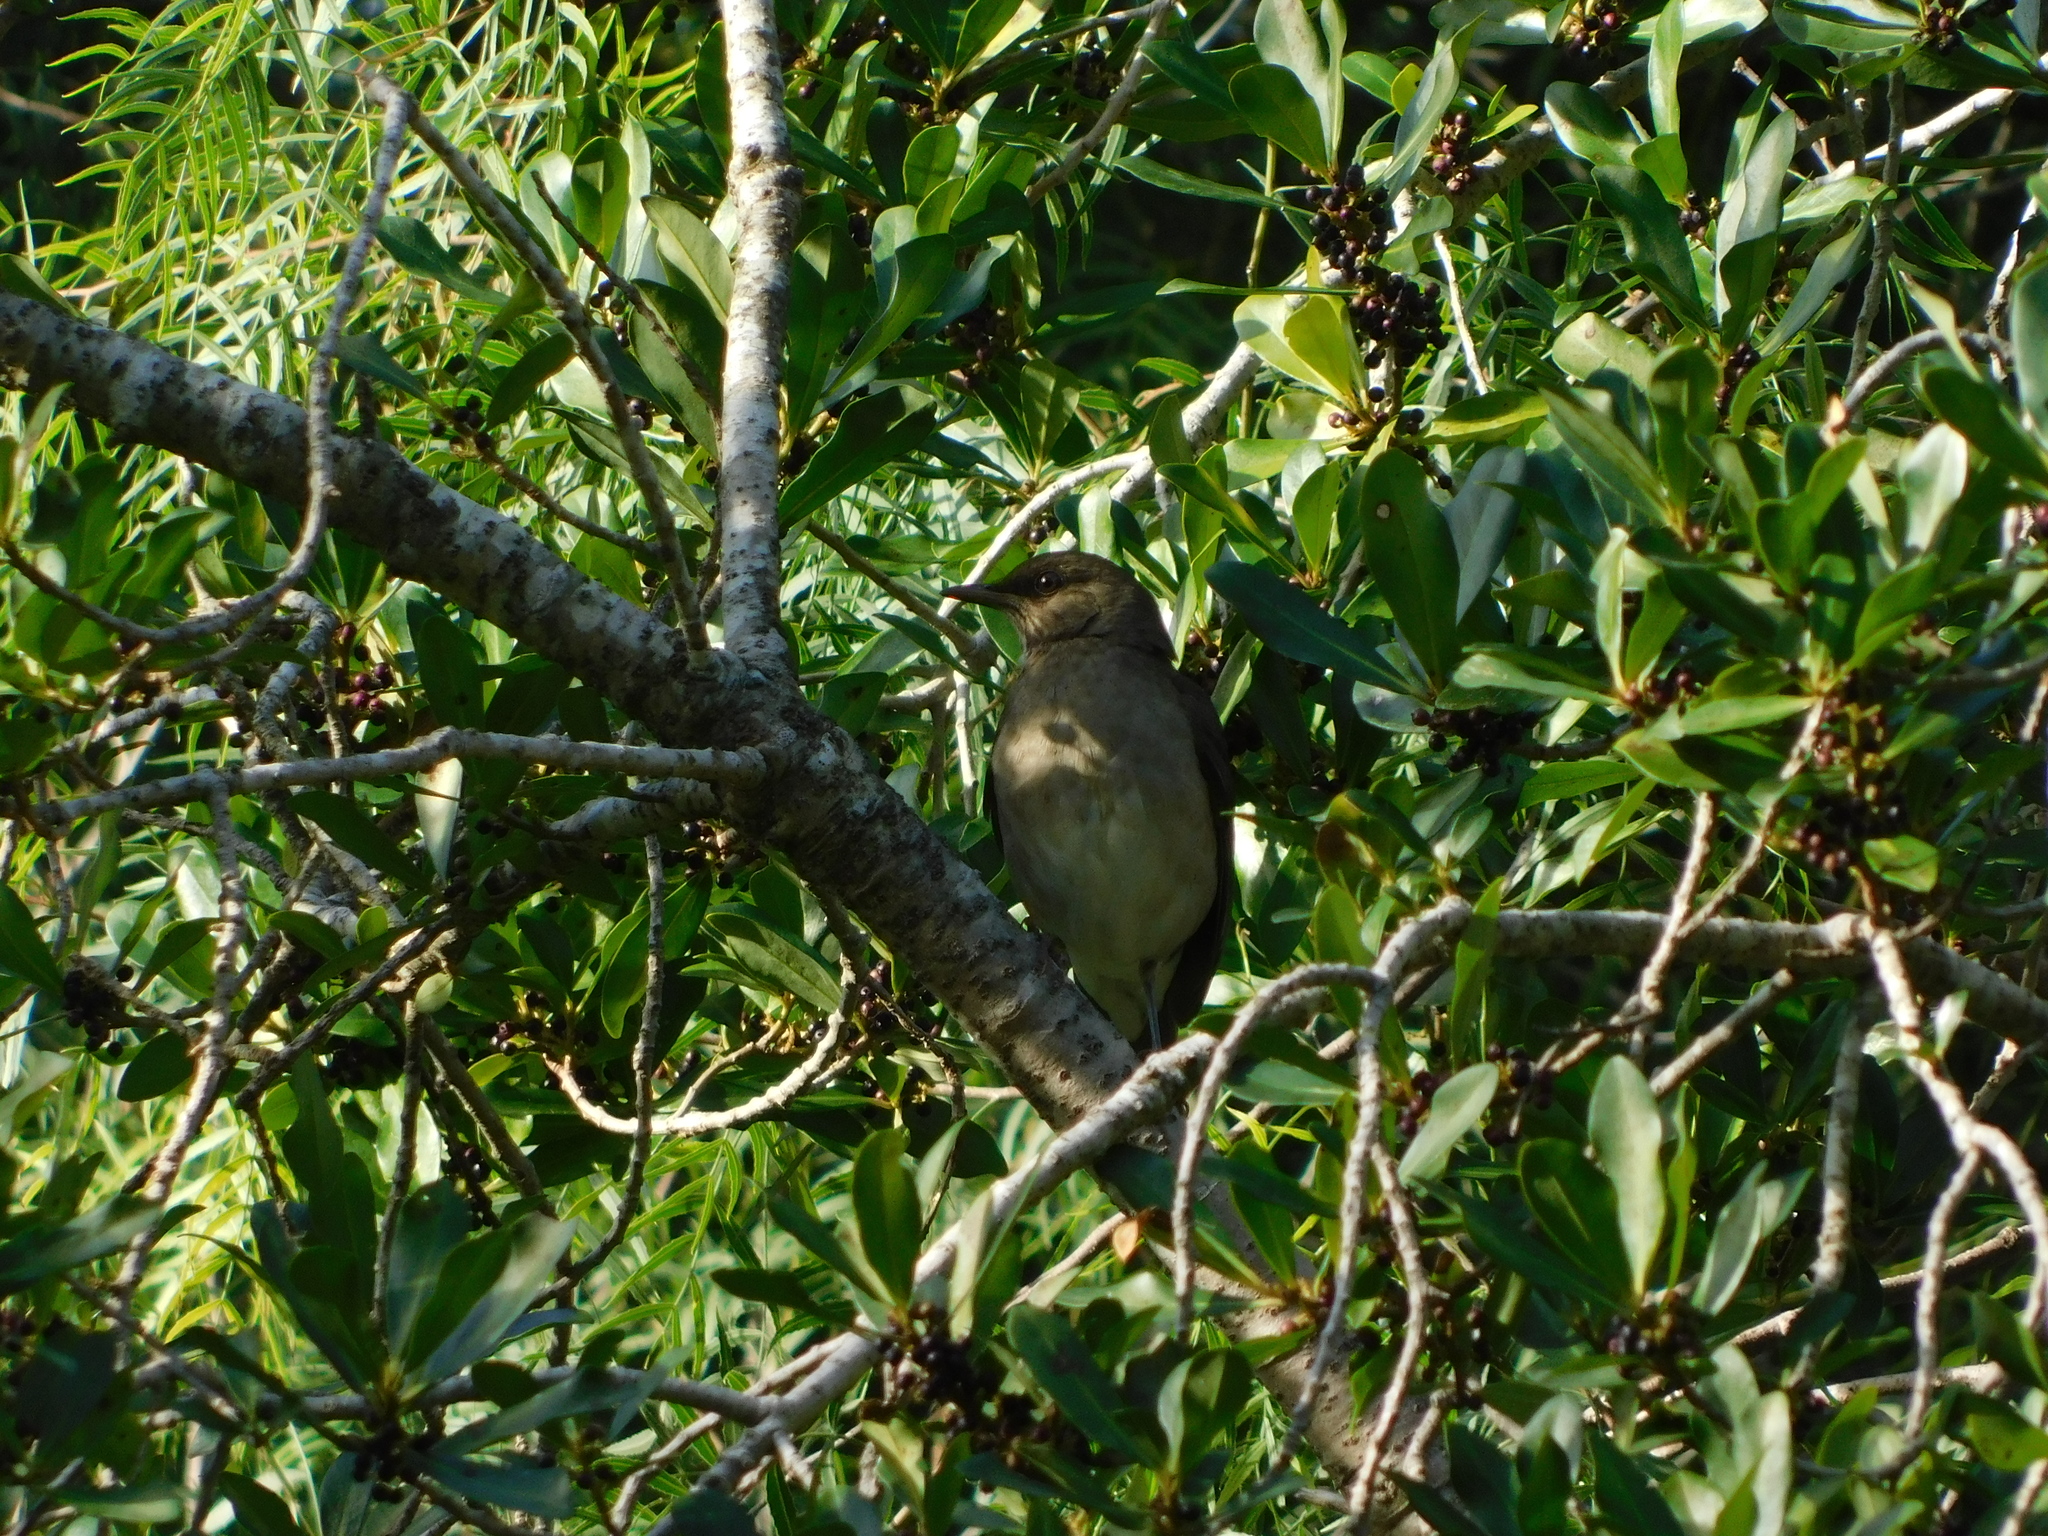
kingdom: Animalia
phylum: Chordata
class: Aves
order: Passeriformes
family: Turdidae
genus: Turdus
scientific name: Turdus amaurochalinus
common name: Creamy-bellied thrush
